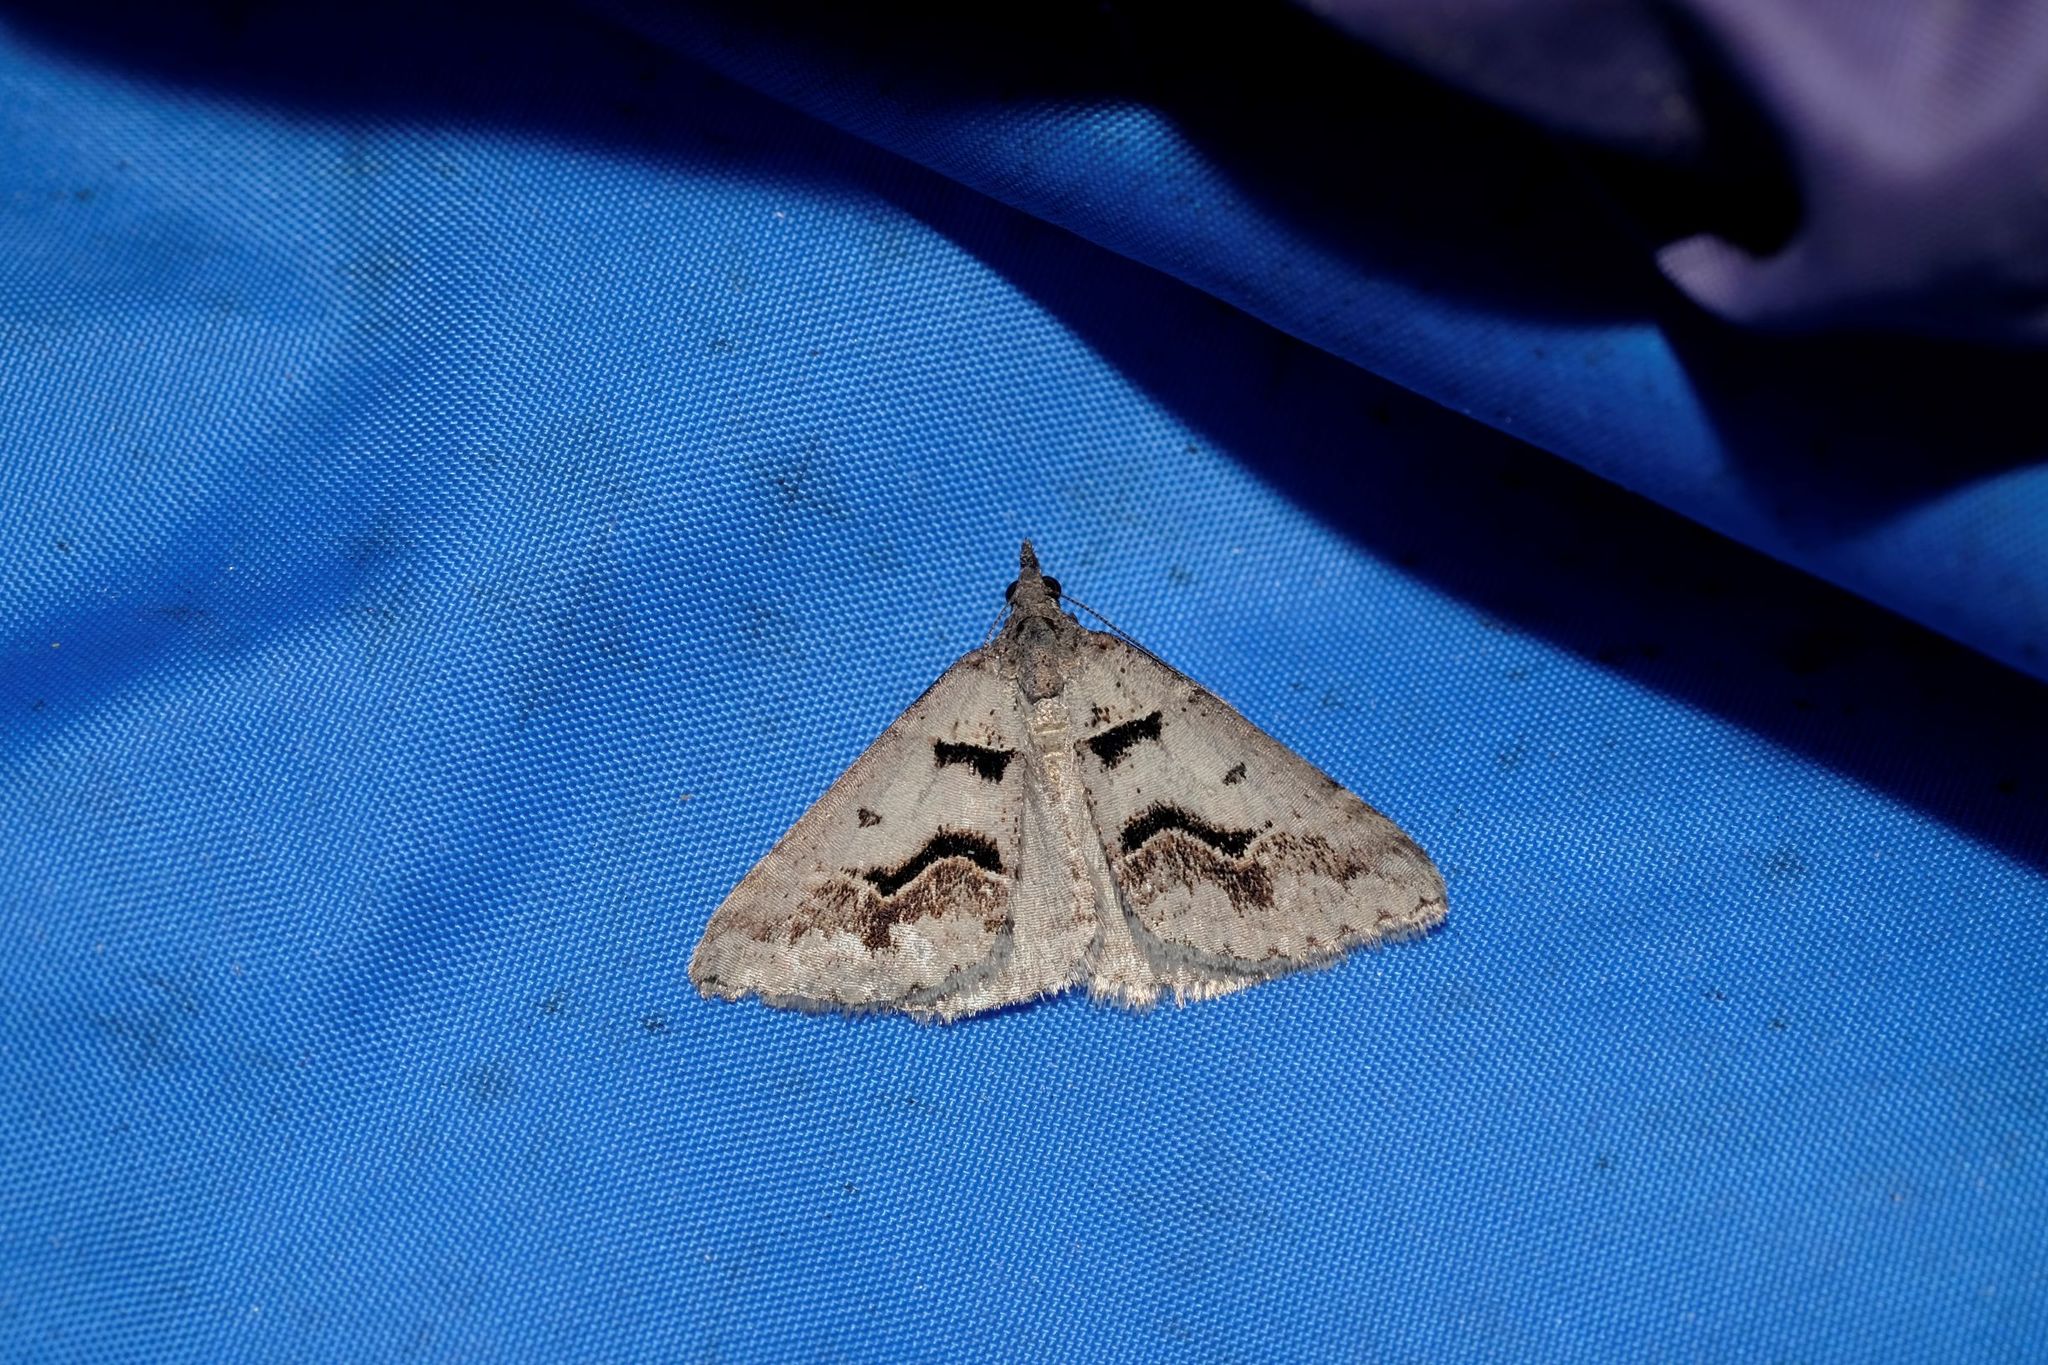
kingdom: Animalia
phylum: Arthropoda
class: Insecta
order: Lepidoptera
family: Geometridae
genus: Dichromodes
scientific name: Dichromodes atrosignata
